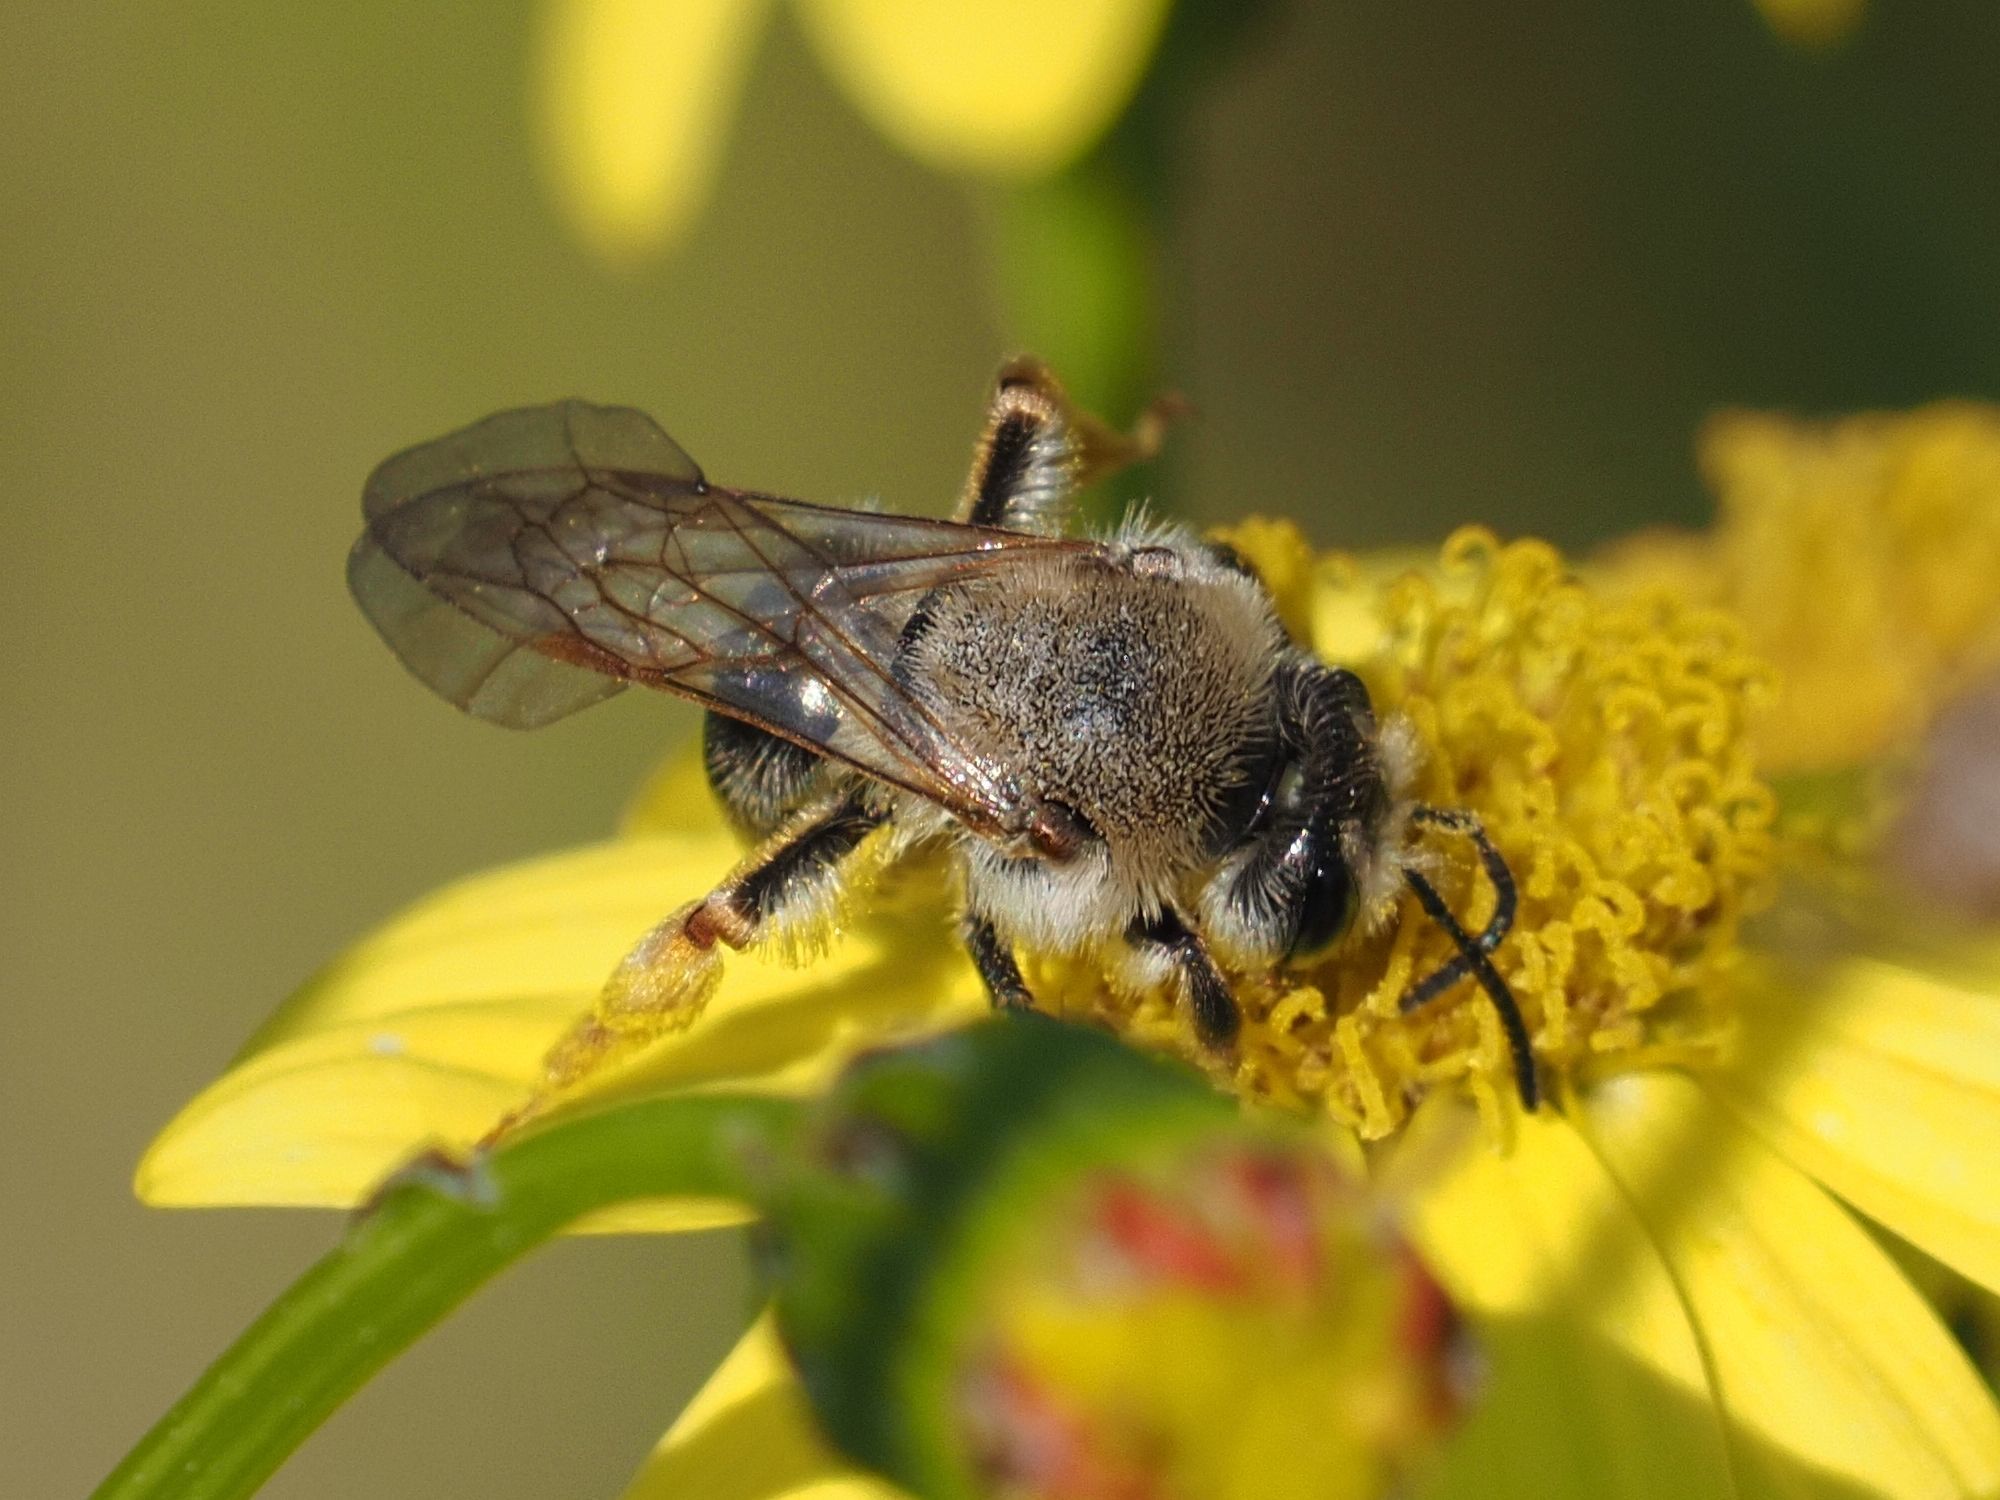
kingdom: Animalia
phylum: Arthropoda
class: Insecta
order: Hymenoptera
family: Andrenidae
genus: Andrena
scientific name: Andrena haemorrhoa
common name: Early mining bee
